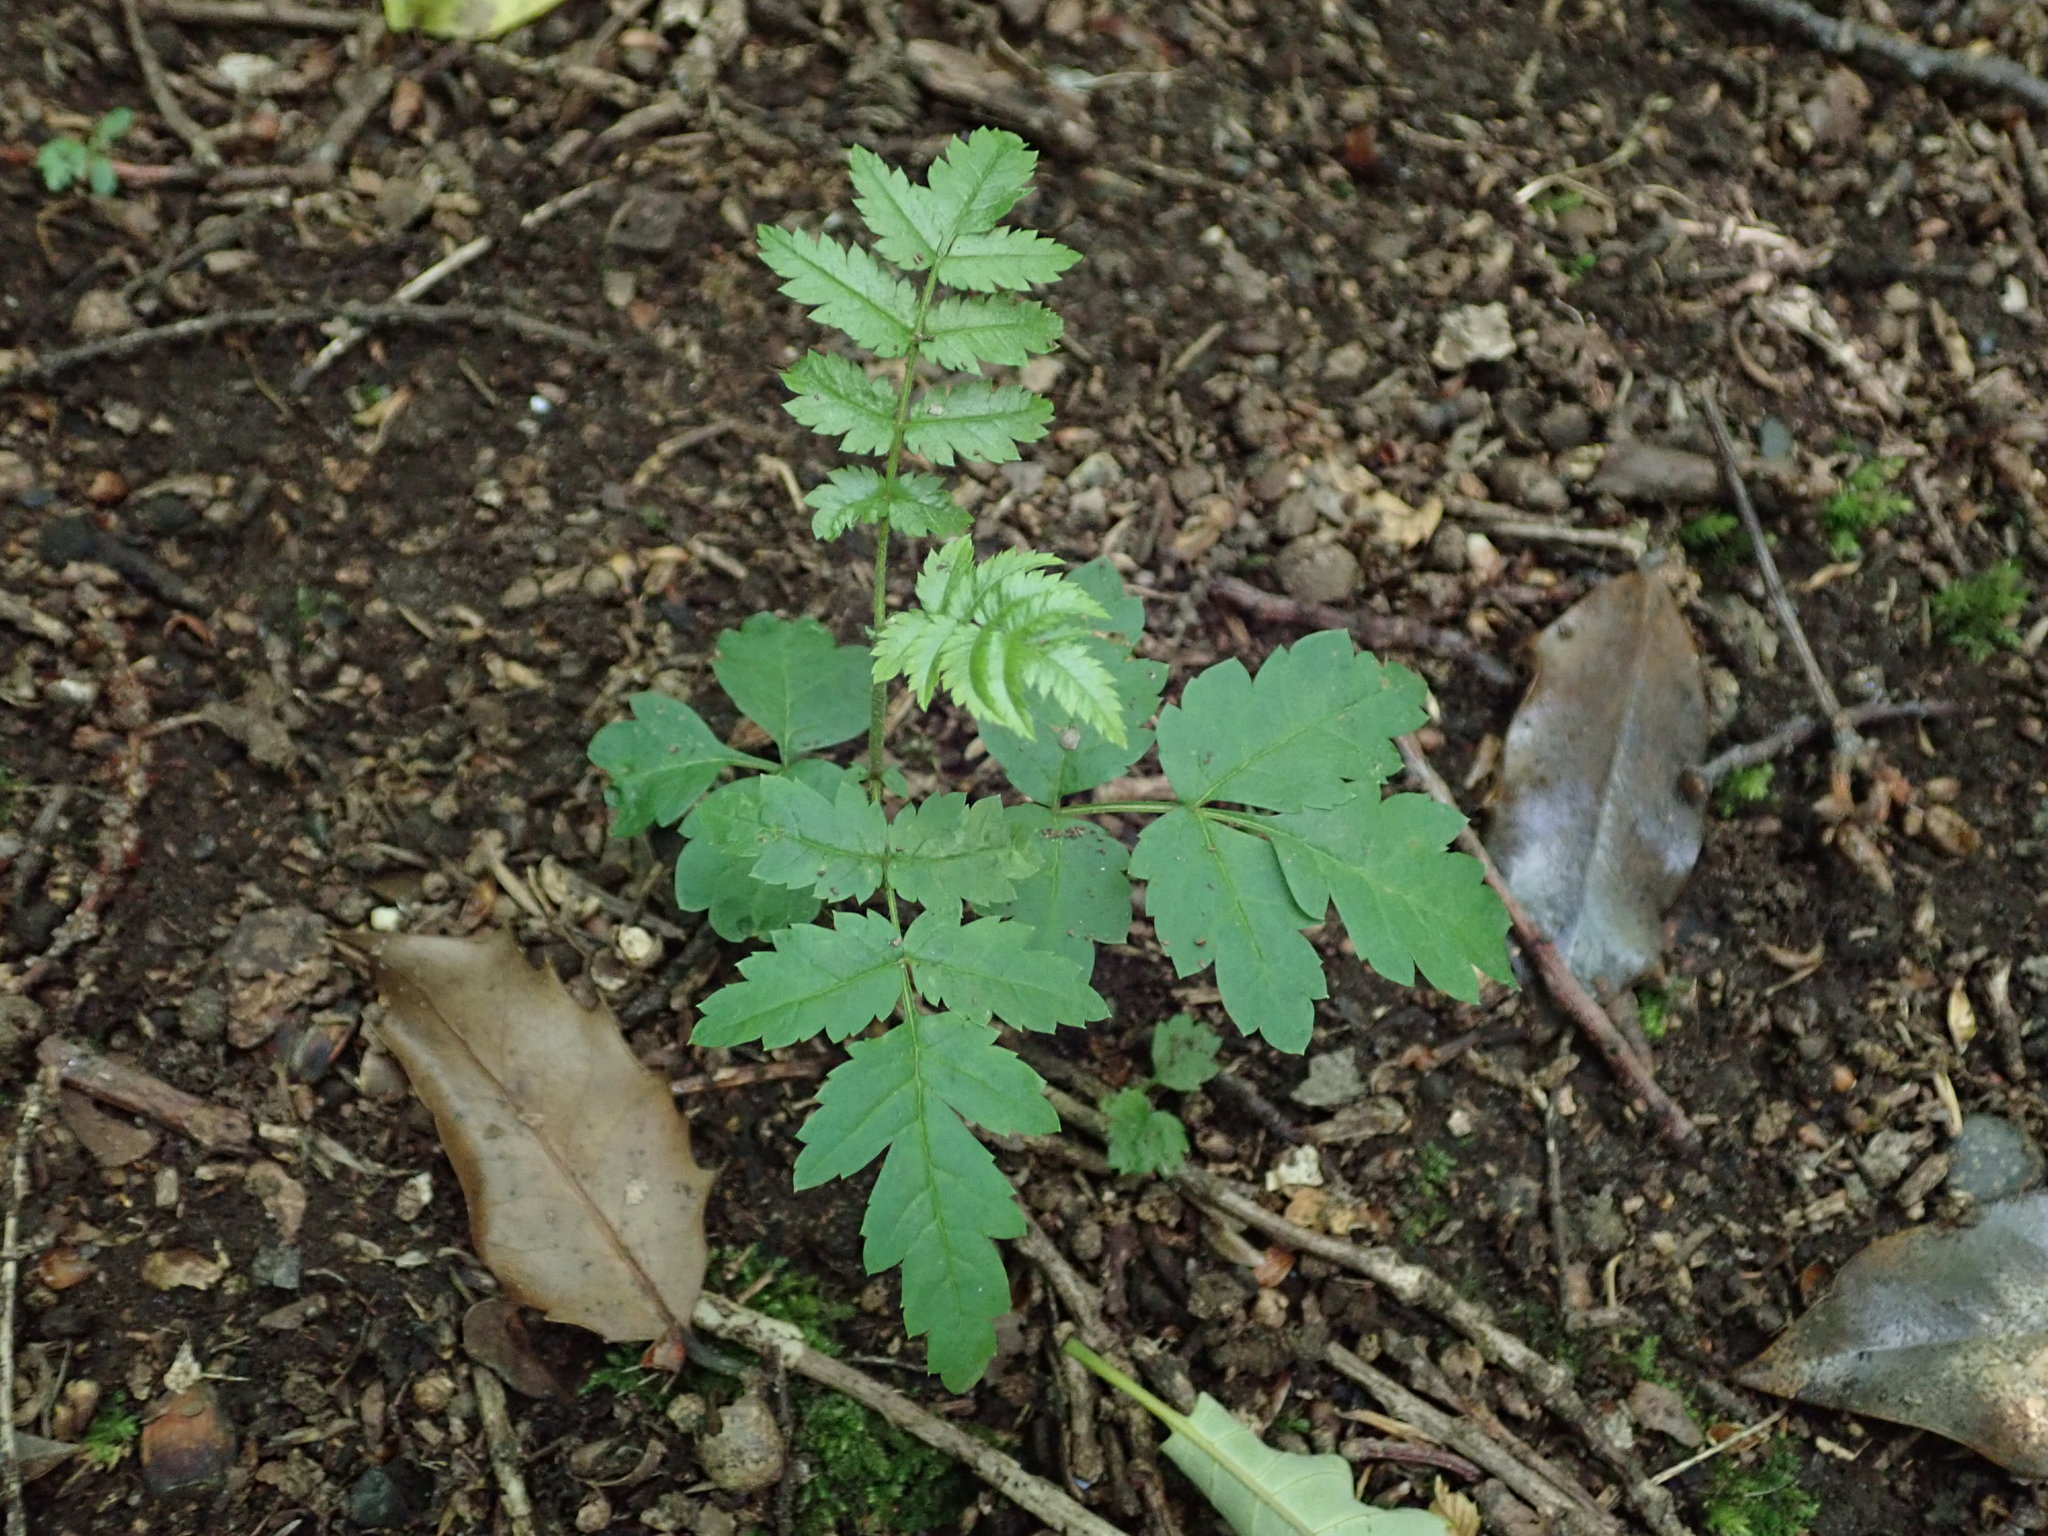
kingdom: Plantae
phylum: Tracheophyta
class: Magnoliopsida
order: Rosales
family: Rosaceae
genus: Sorbus
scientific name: Sorbus aucuparia
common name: Rowan
